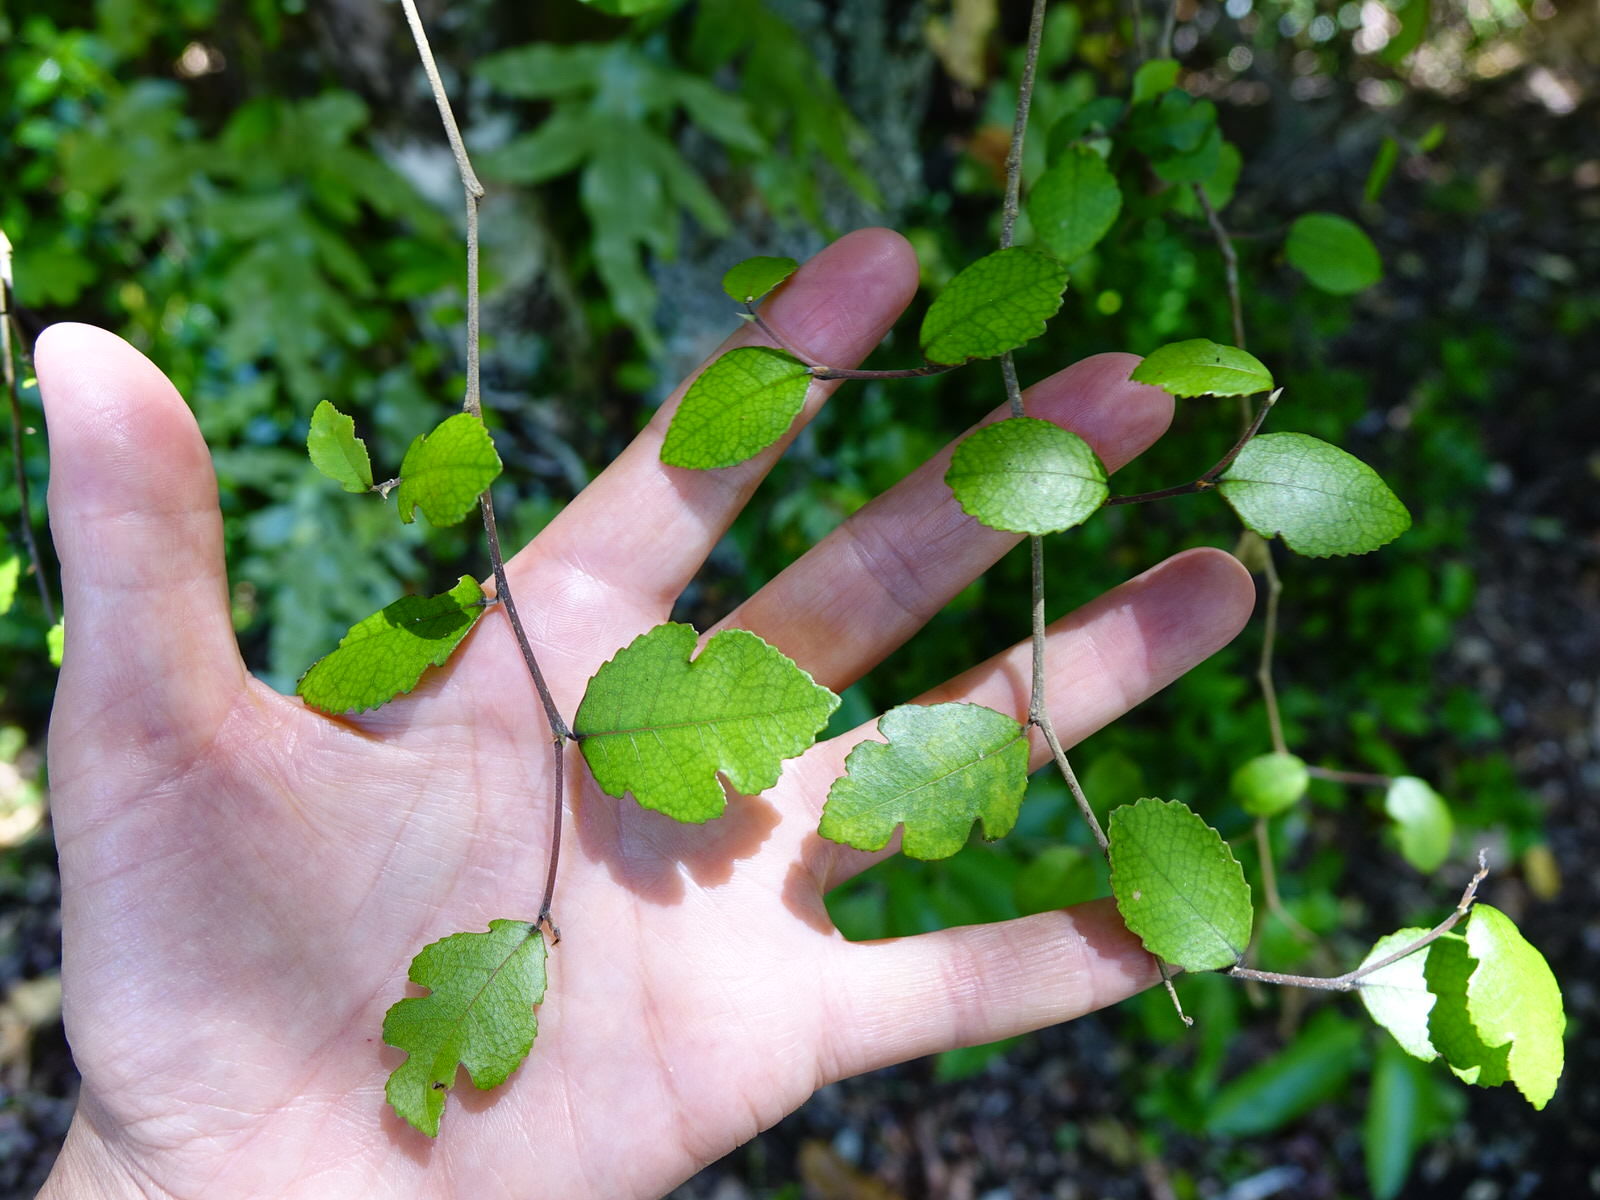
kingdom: Plantae
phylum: Tracheophyta
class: Magnoliopsida
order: Rosales
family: Moraceae
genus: Paratrophis
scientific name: Paratrophis microphylla
